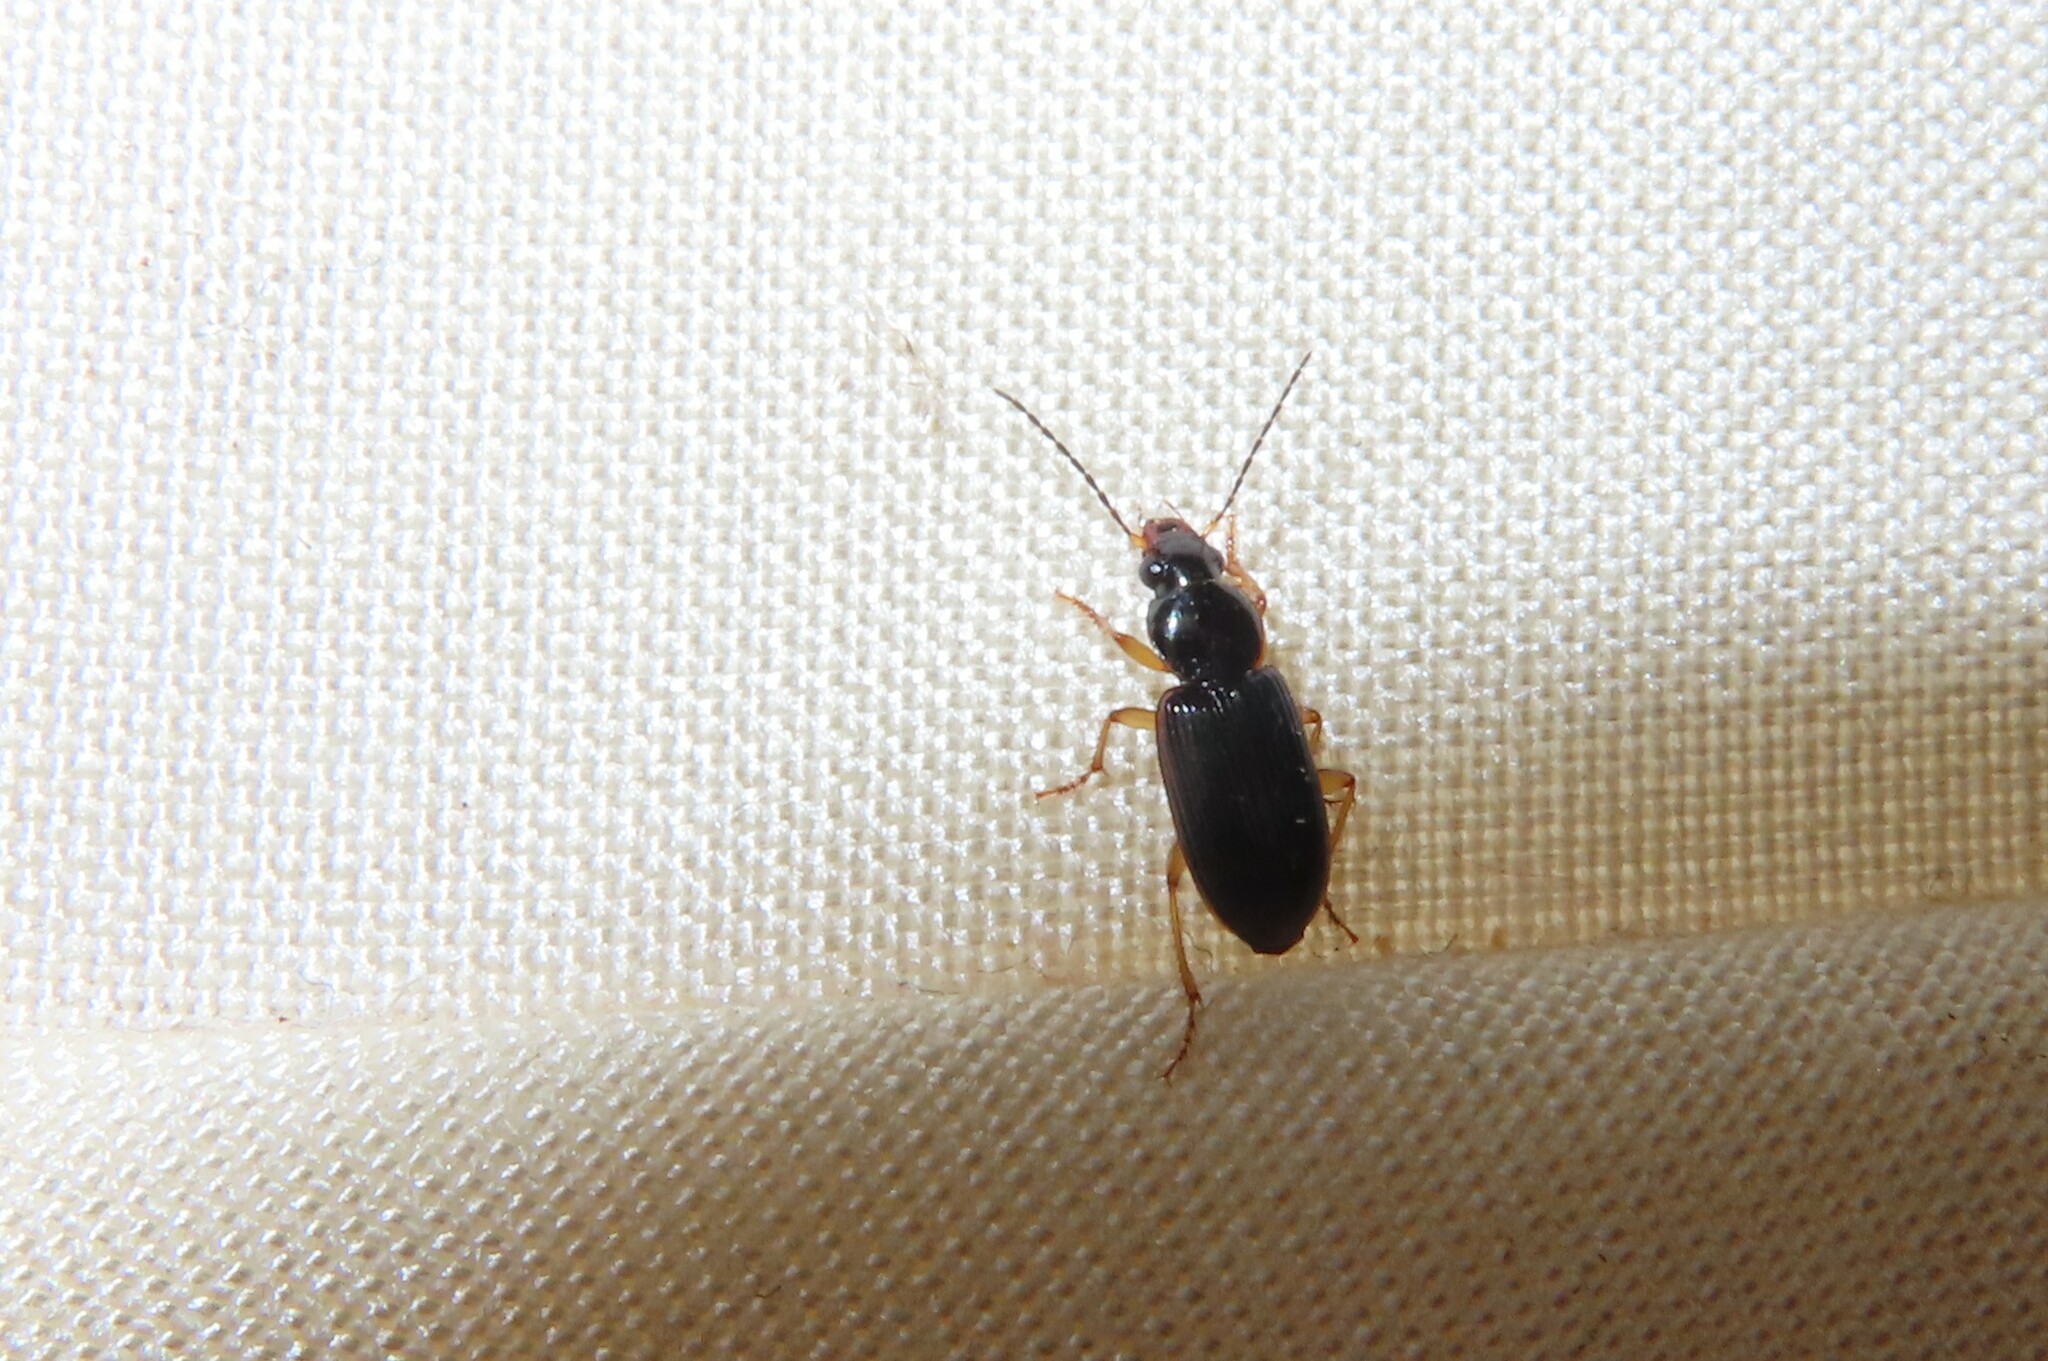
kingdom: Animalia
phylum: Arthropoda
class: Insecta
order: Coleoptera
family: Carabidae
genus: Stenolophus
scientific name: Stenolophus ochropezus
